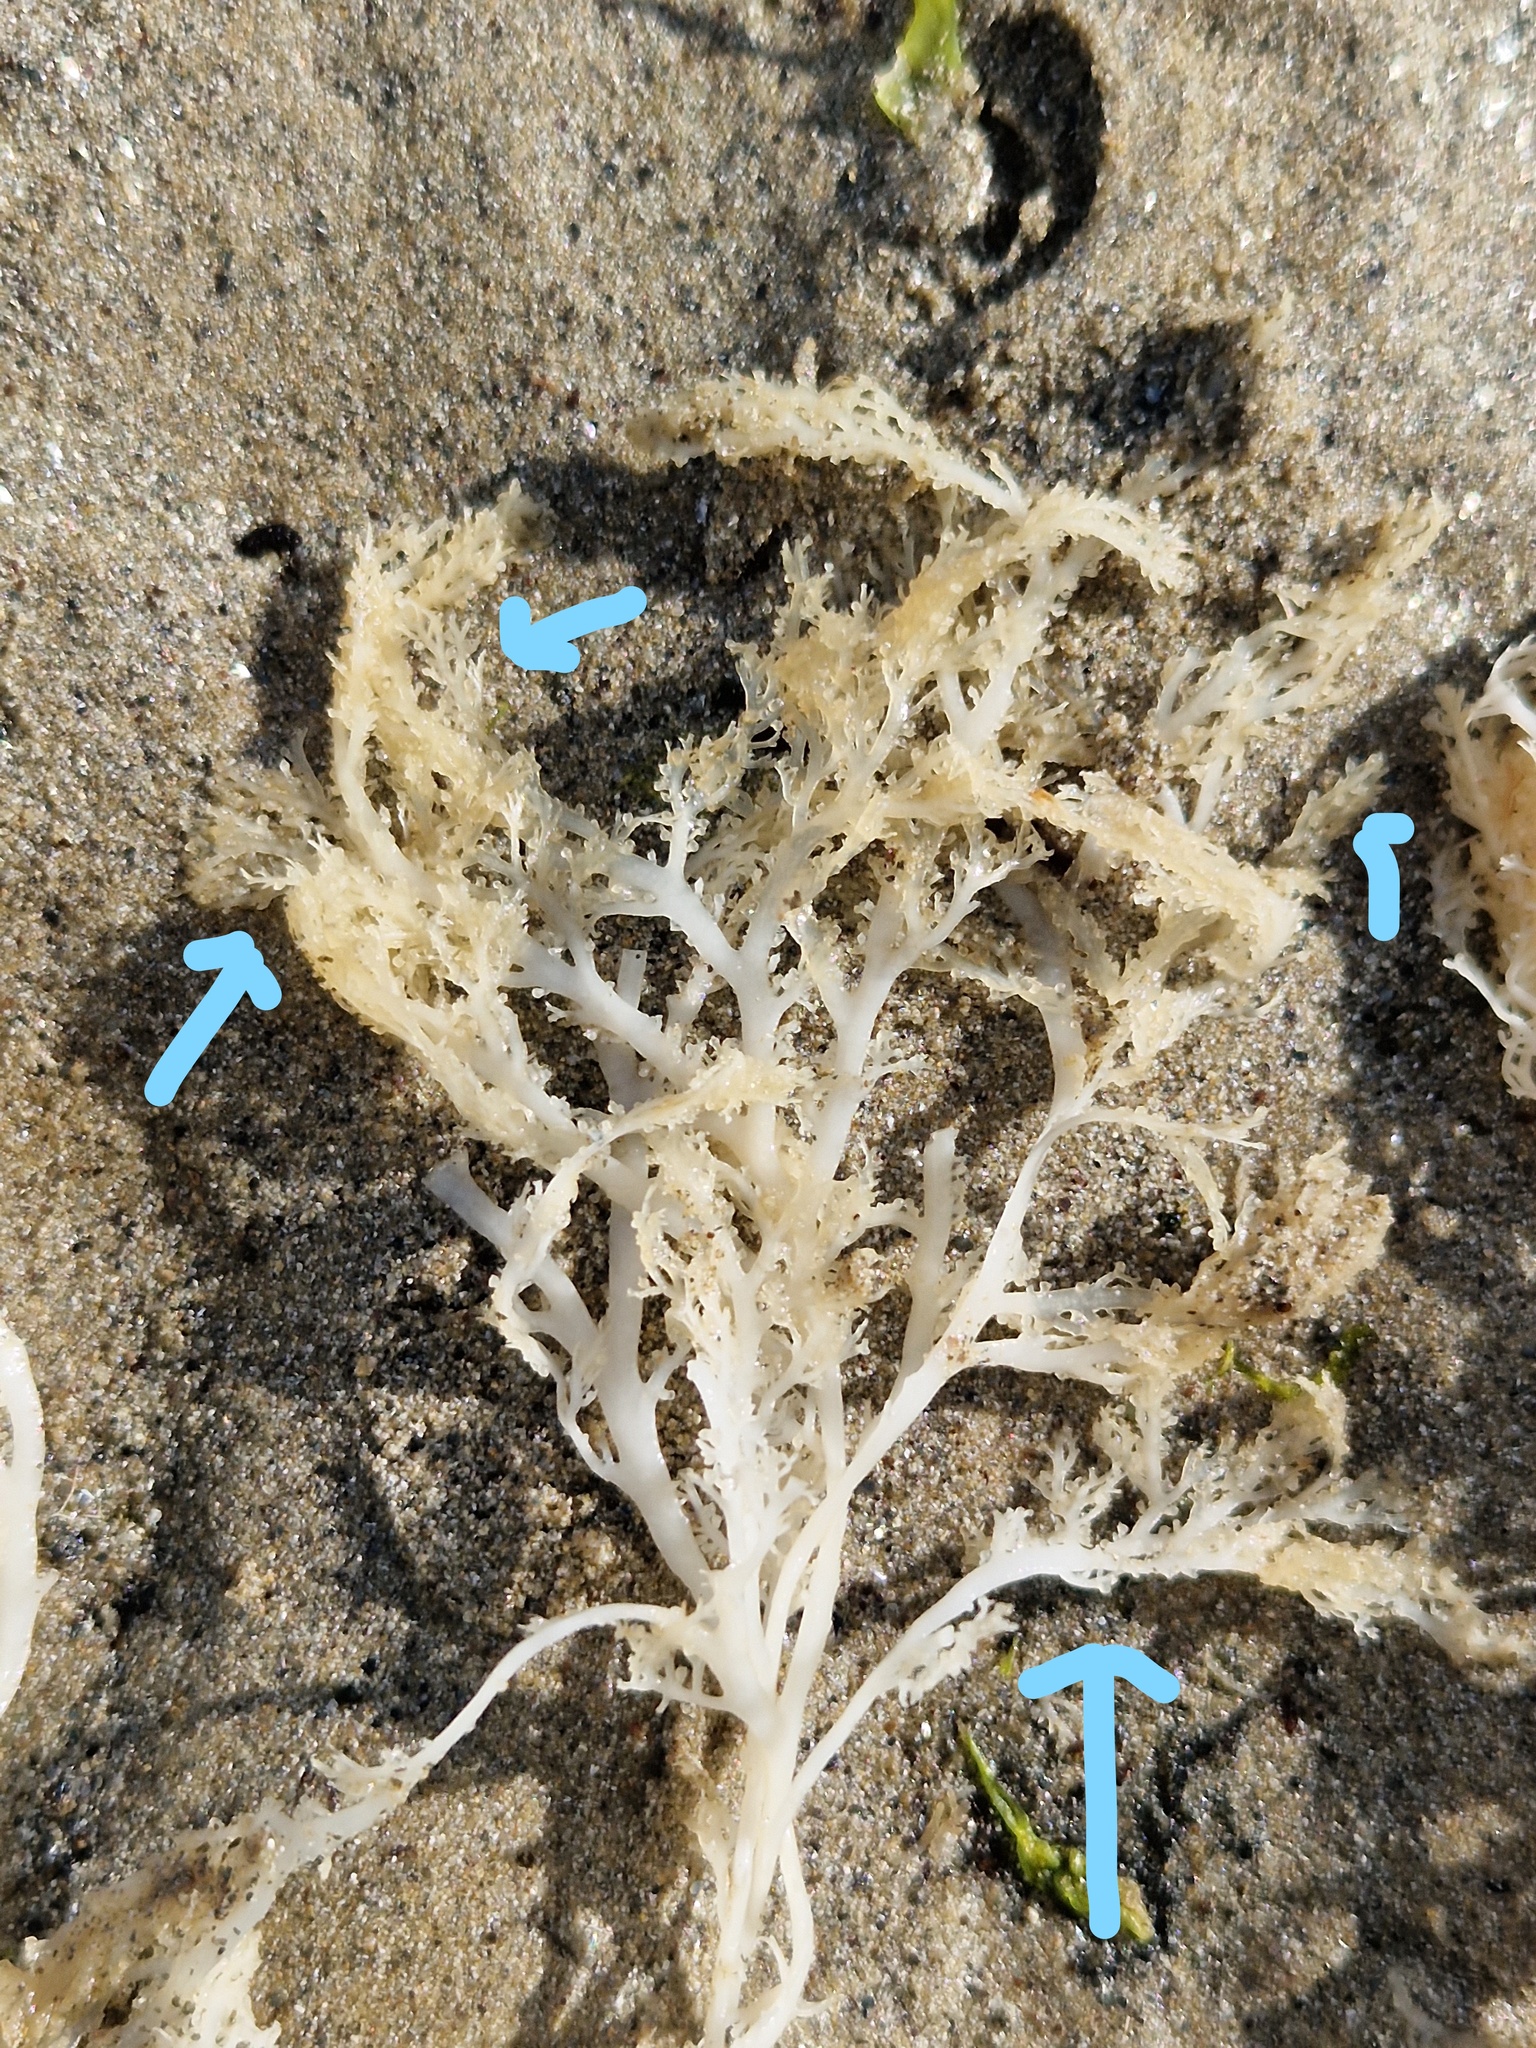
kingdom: Plantae
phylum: Rhodophyta
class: Florideophyceae
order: Gigartinales
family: Sphaerococcaceae
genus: Sphaerococcus
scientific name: Sphaerococcus coronopifolius
